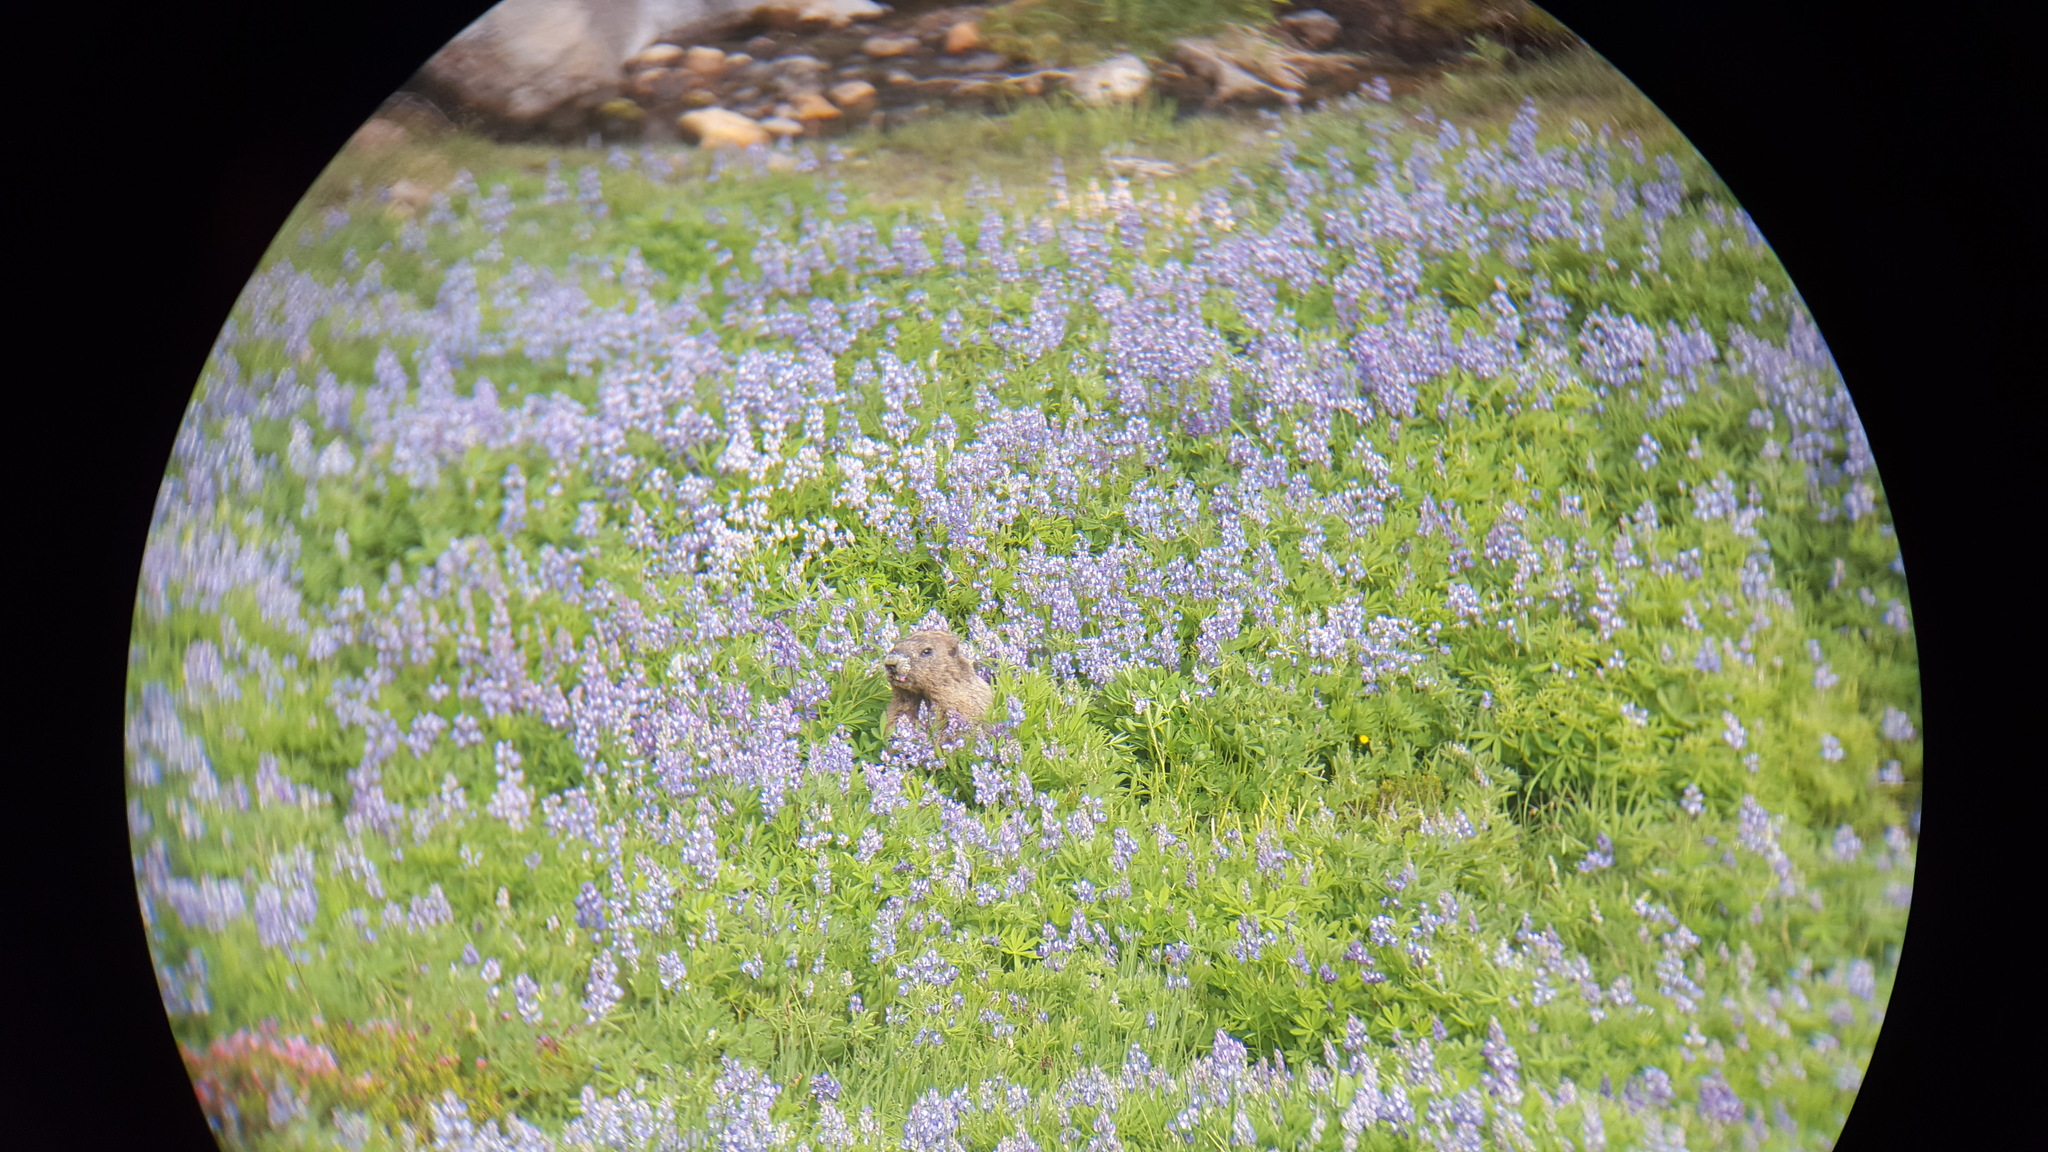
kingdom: Animalia
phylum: Chordata
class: Mammalia
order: Rodentia
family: Sciuridae
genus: Marmota
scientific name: Marmota caligata
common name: Hoary marmot
